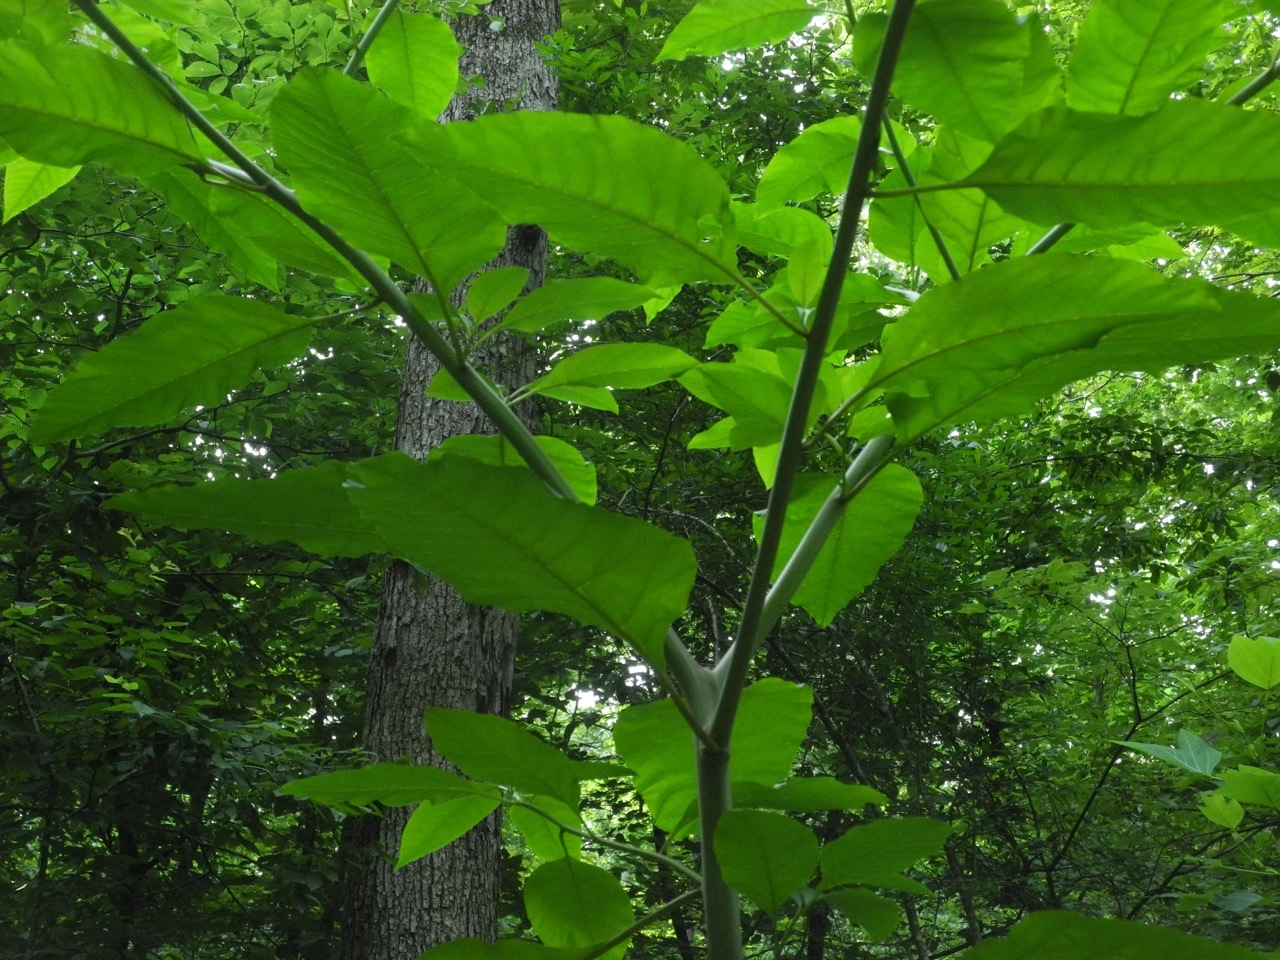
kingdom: Plantae
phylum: Tracheophyta
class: Magnoliopsida
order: Caryophyllales
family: Phytolaccaceae
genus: Phytolacca
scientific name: Phytolacca americana
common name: American pokeweed
